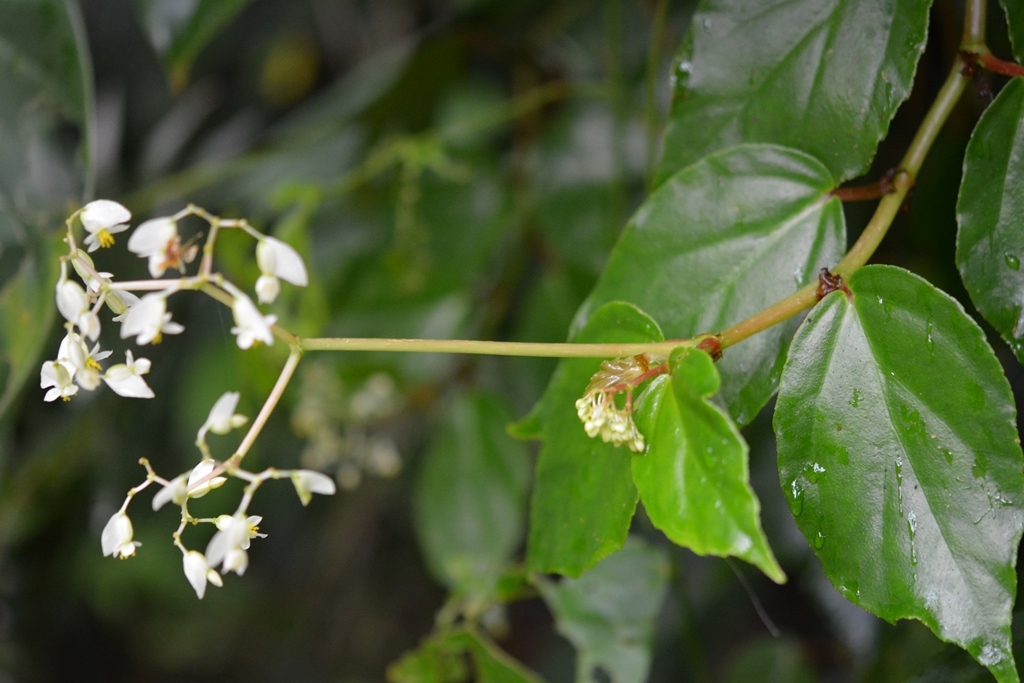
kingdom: Plantae
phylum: Tracheophyta
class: Magnoliopsida
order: Cucurbitales
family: Begoniaceae
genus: Begonia
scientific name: Begonia glabra
